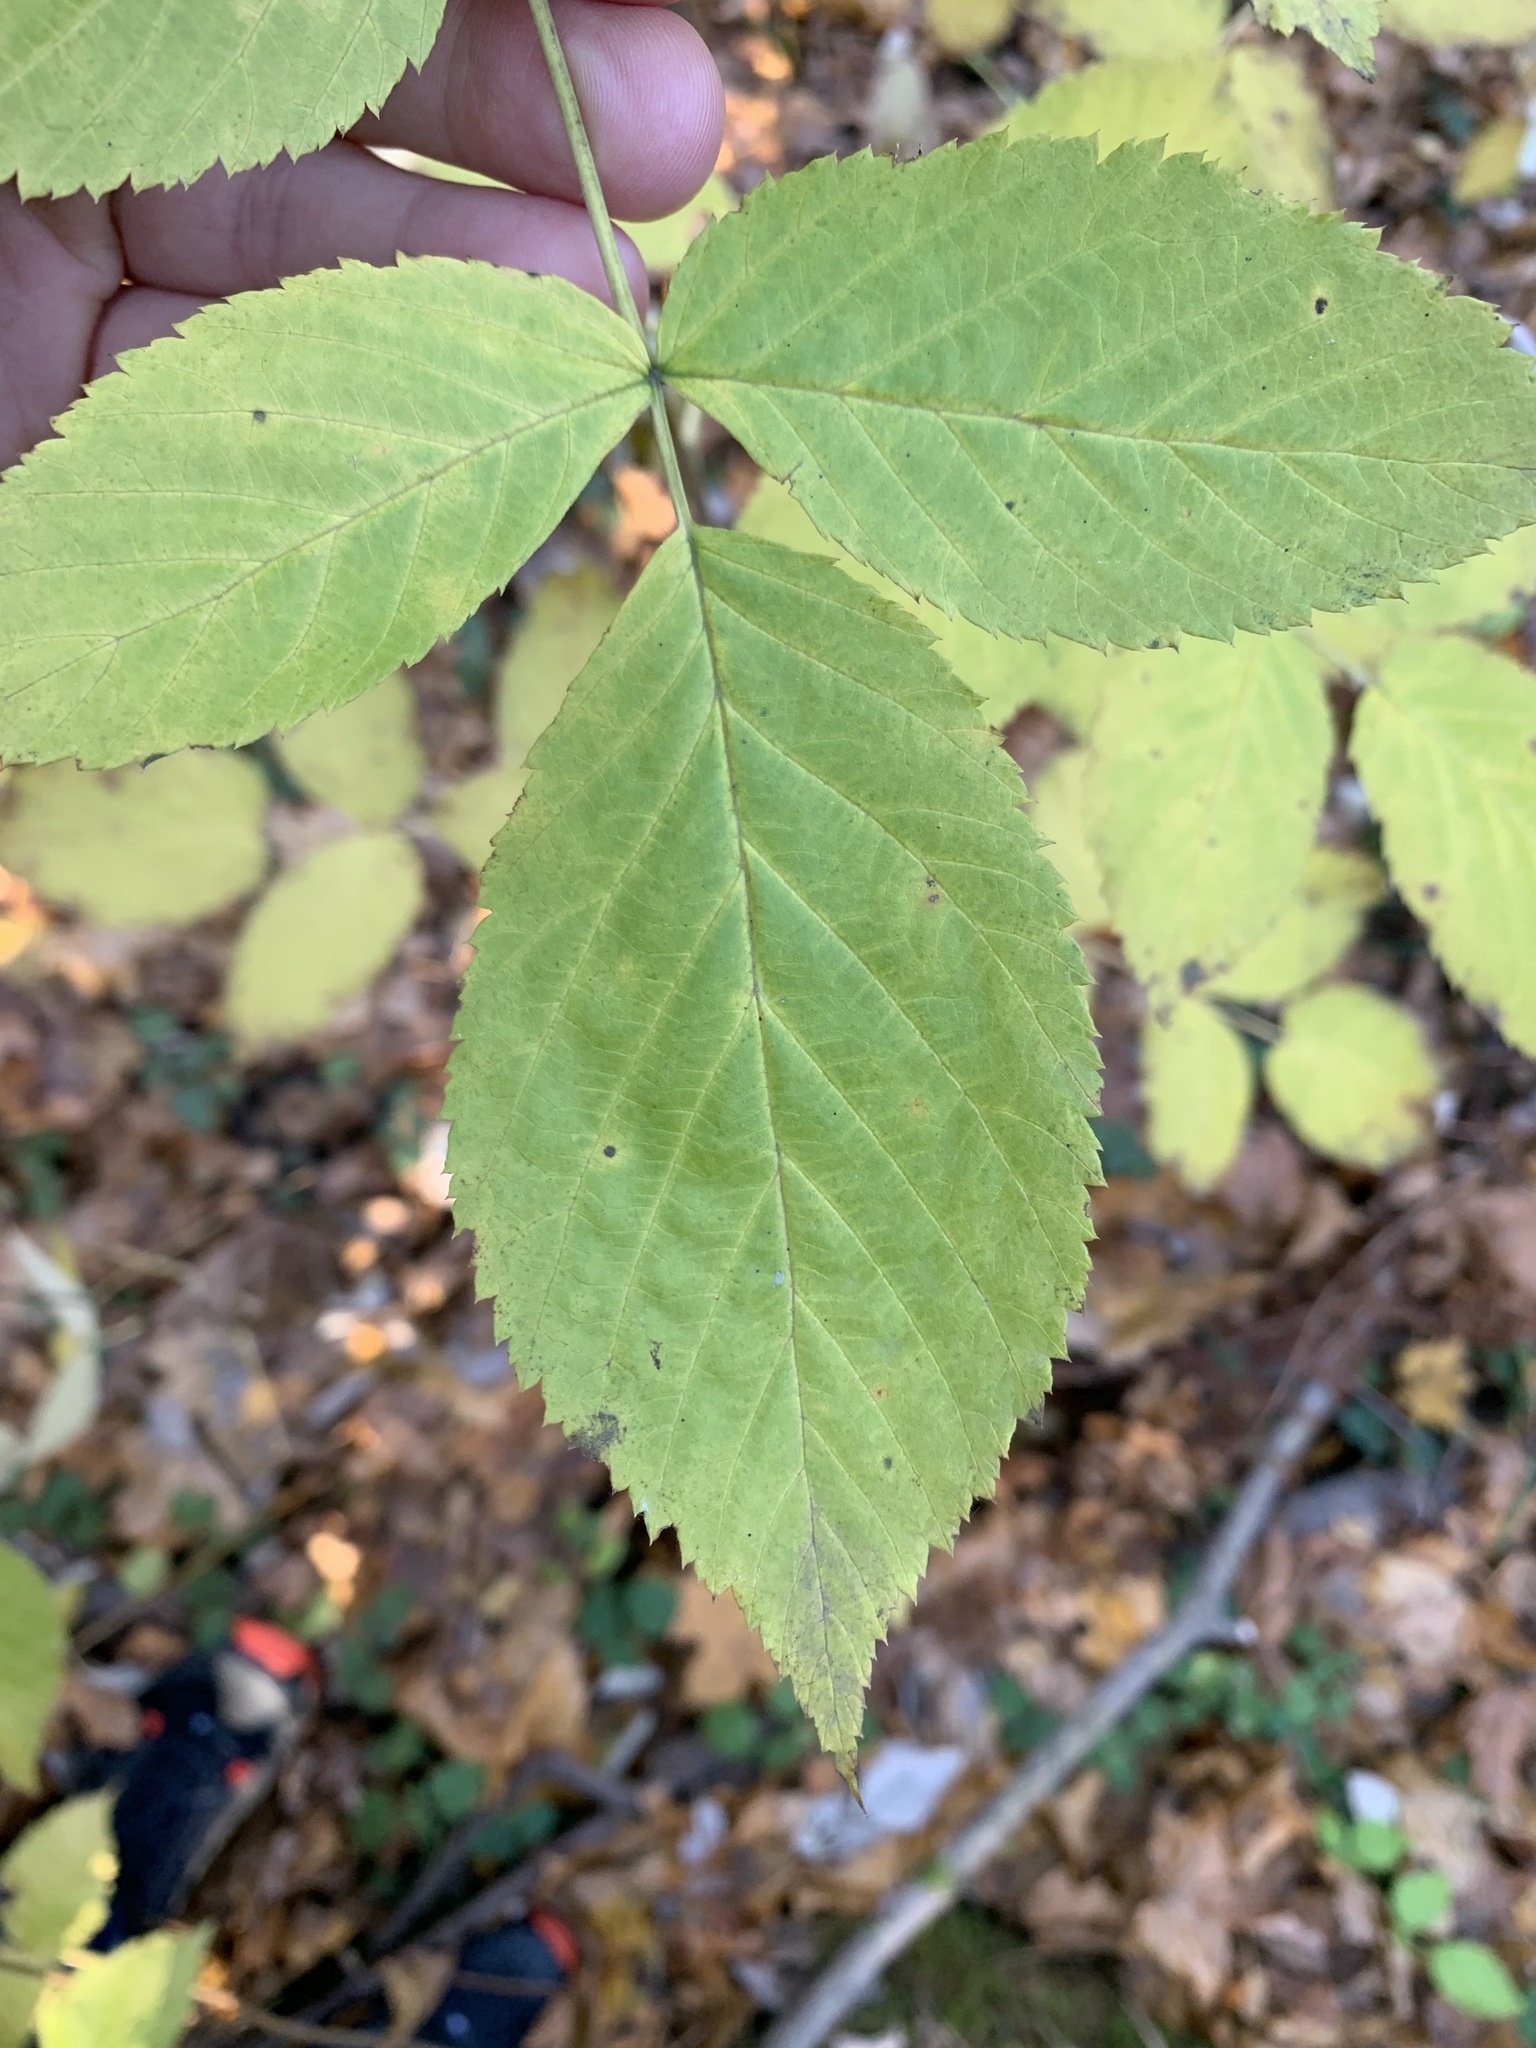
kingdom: Plantae
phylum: Tracheophyta
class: Magnoliopsida
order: Rosales
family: Rosaceae
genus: Rubus
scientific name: Rubus idaeus
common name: Raspberry
